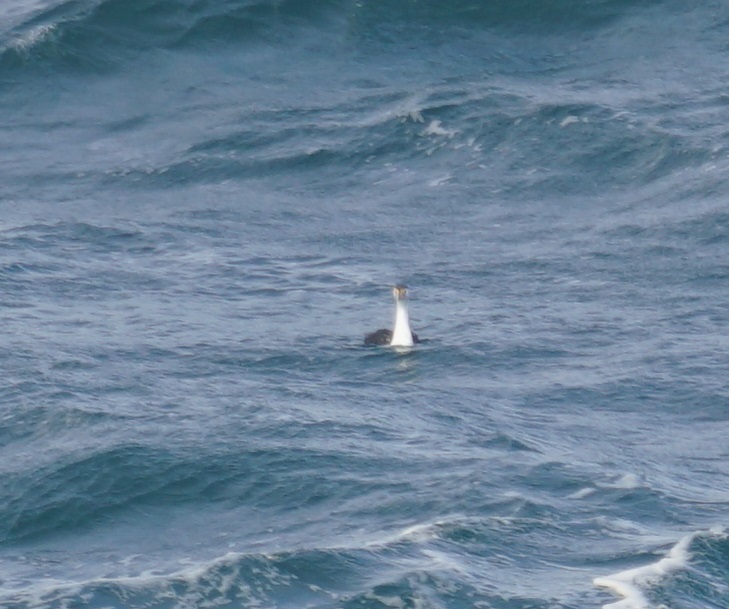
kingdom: Animalia
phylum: Chordata
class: Aves
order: Suliformes
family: Phalacrocoracidae
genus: Phalacrocorax
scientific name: Phalacrocorax varius
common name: Pied cormorant
